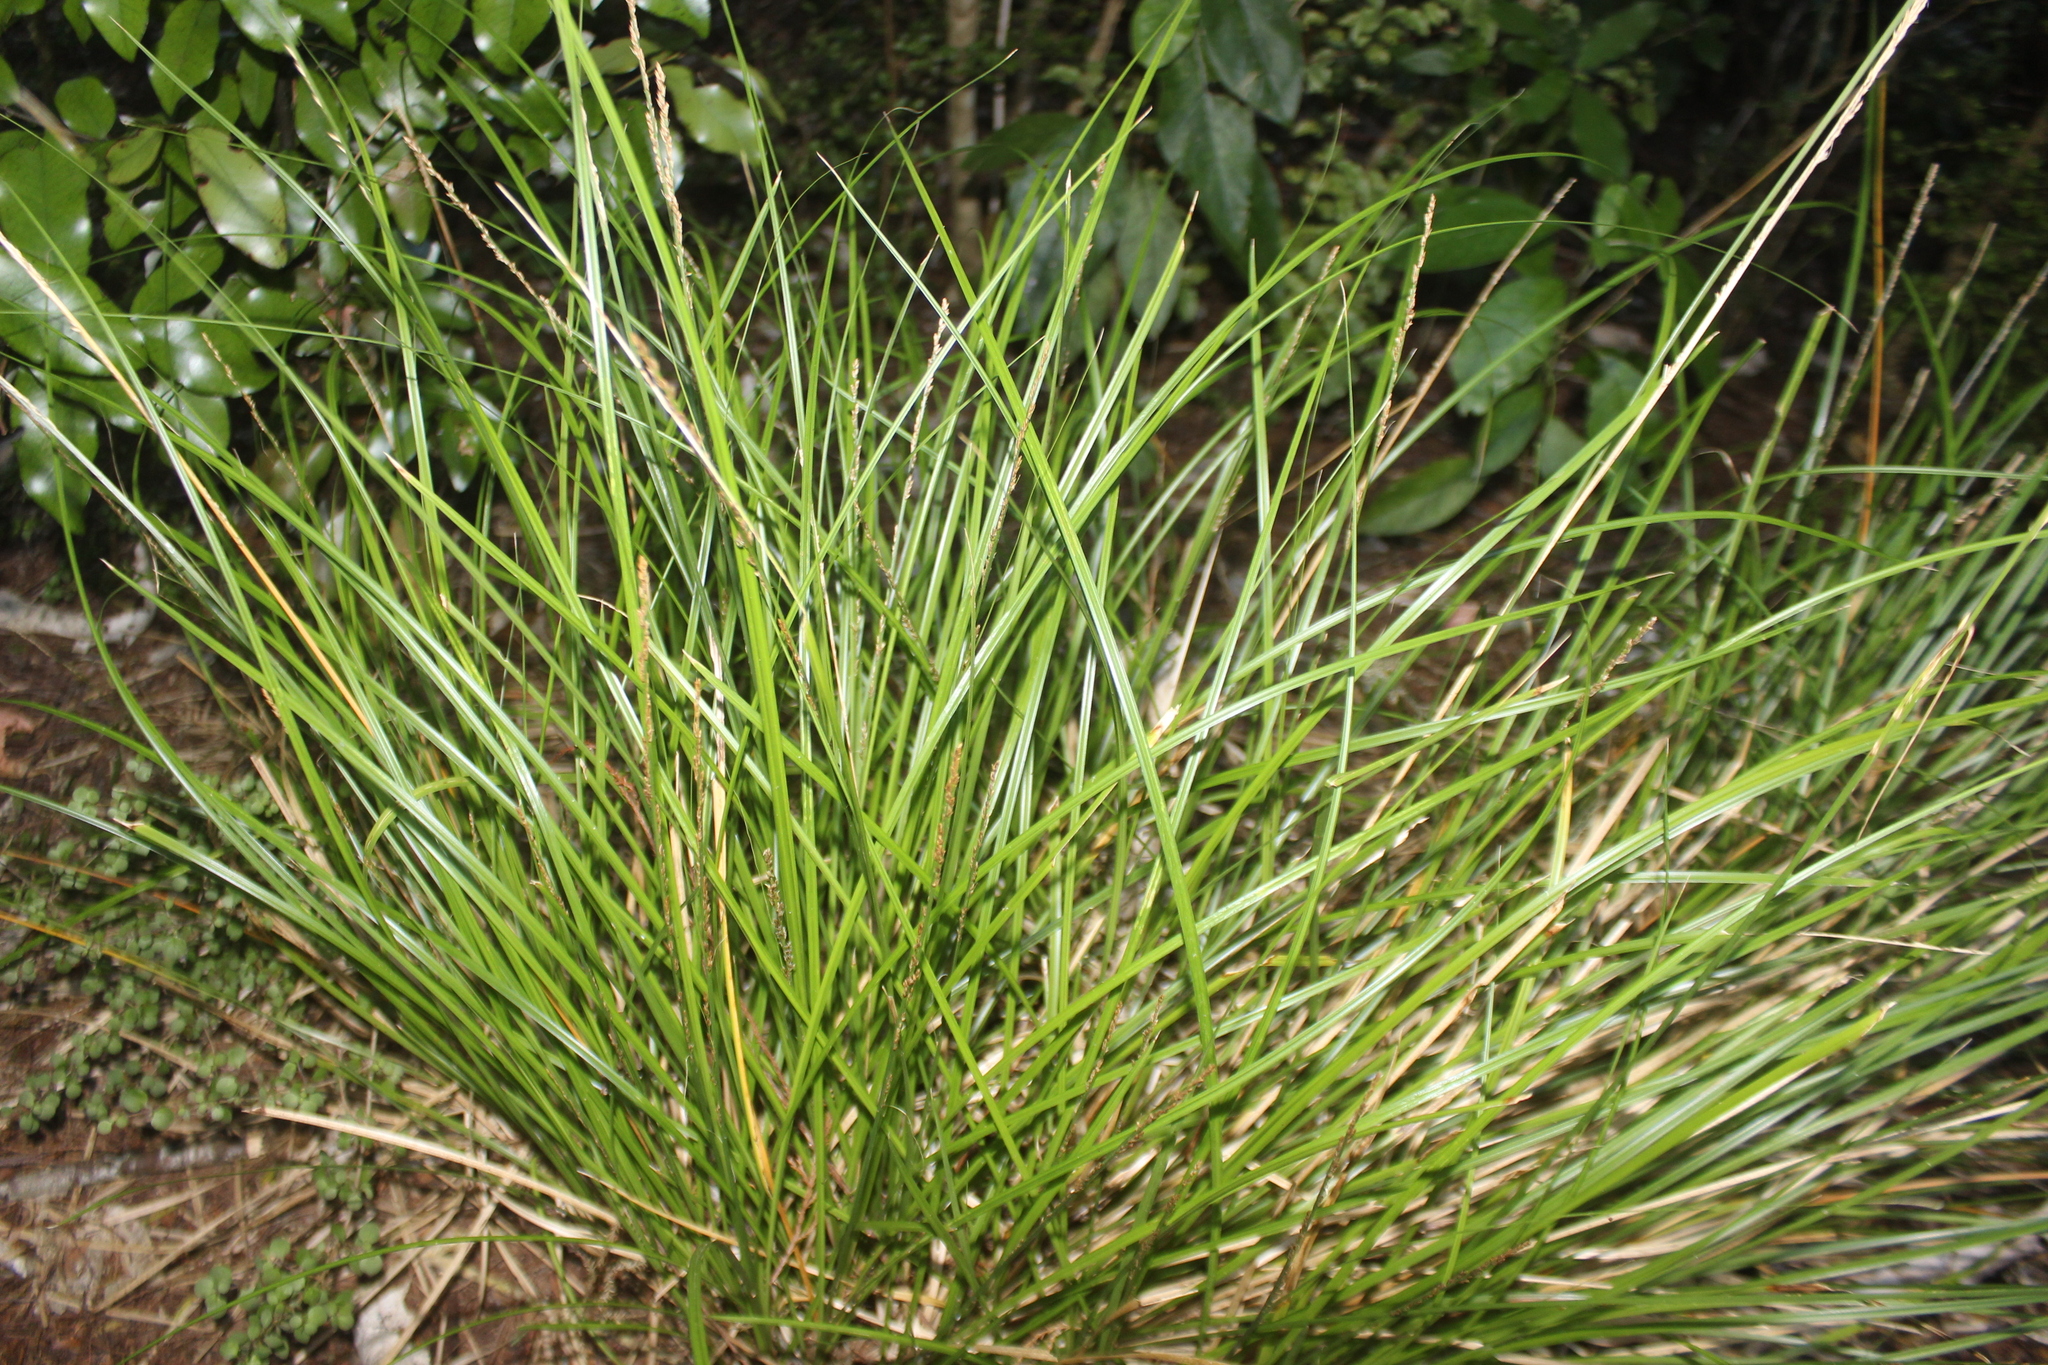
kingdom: Plantae
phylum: Tracheophyta
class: Liliopsida
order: Poales
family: Cyperaceae
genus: Carex
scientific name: Carex virgata
